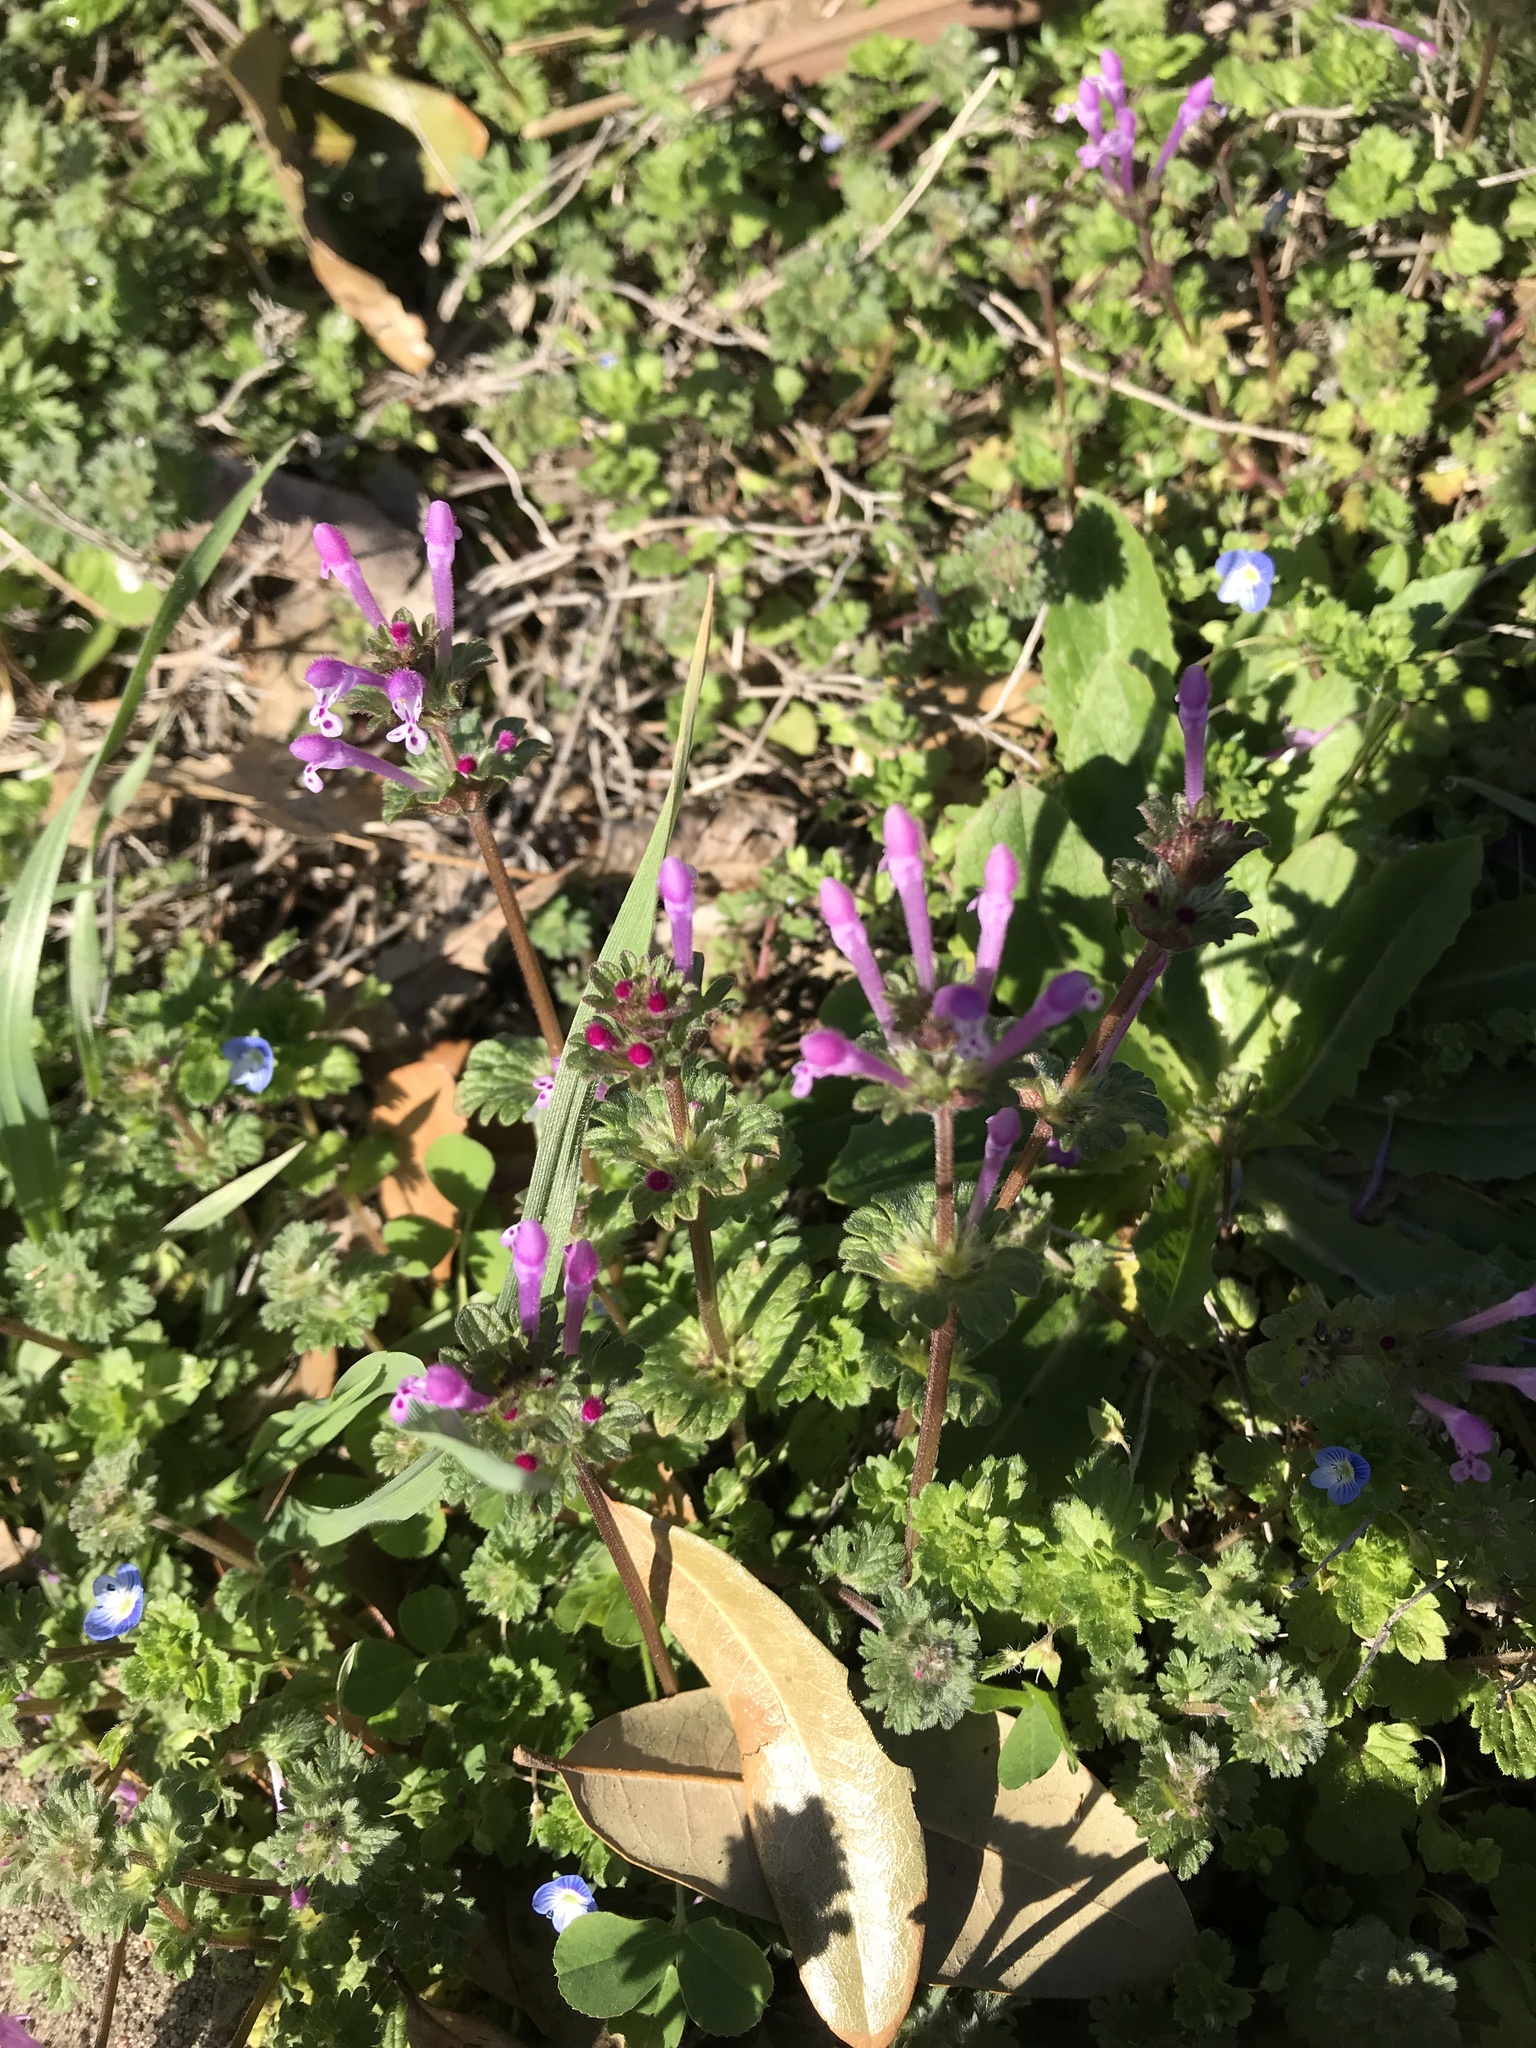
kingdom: Plantae
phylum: Tracheophyta
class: Magnoliopsida
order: Lamiales
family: Lamiaceae
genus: Lamium
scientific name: Lamium amplexicaule
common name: Henbit dead-nettle
